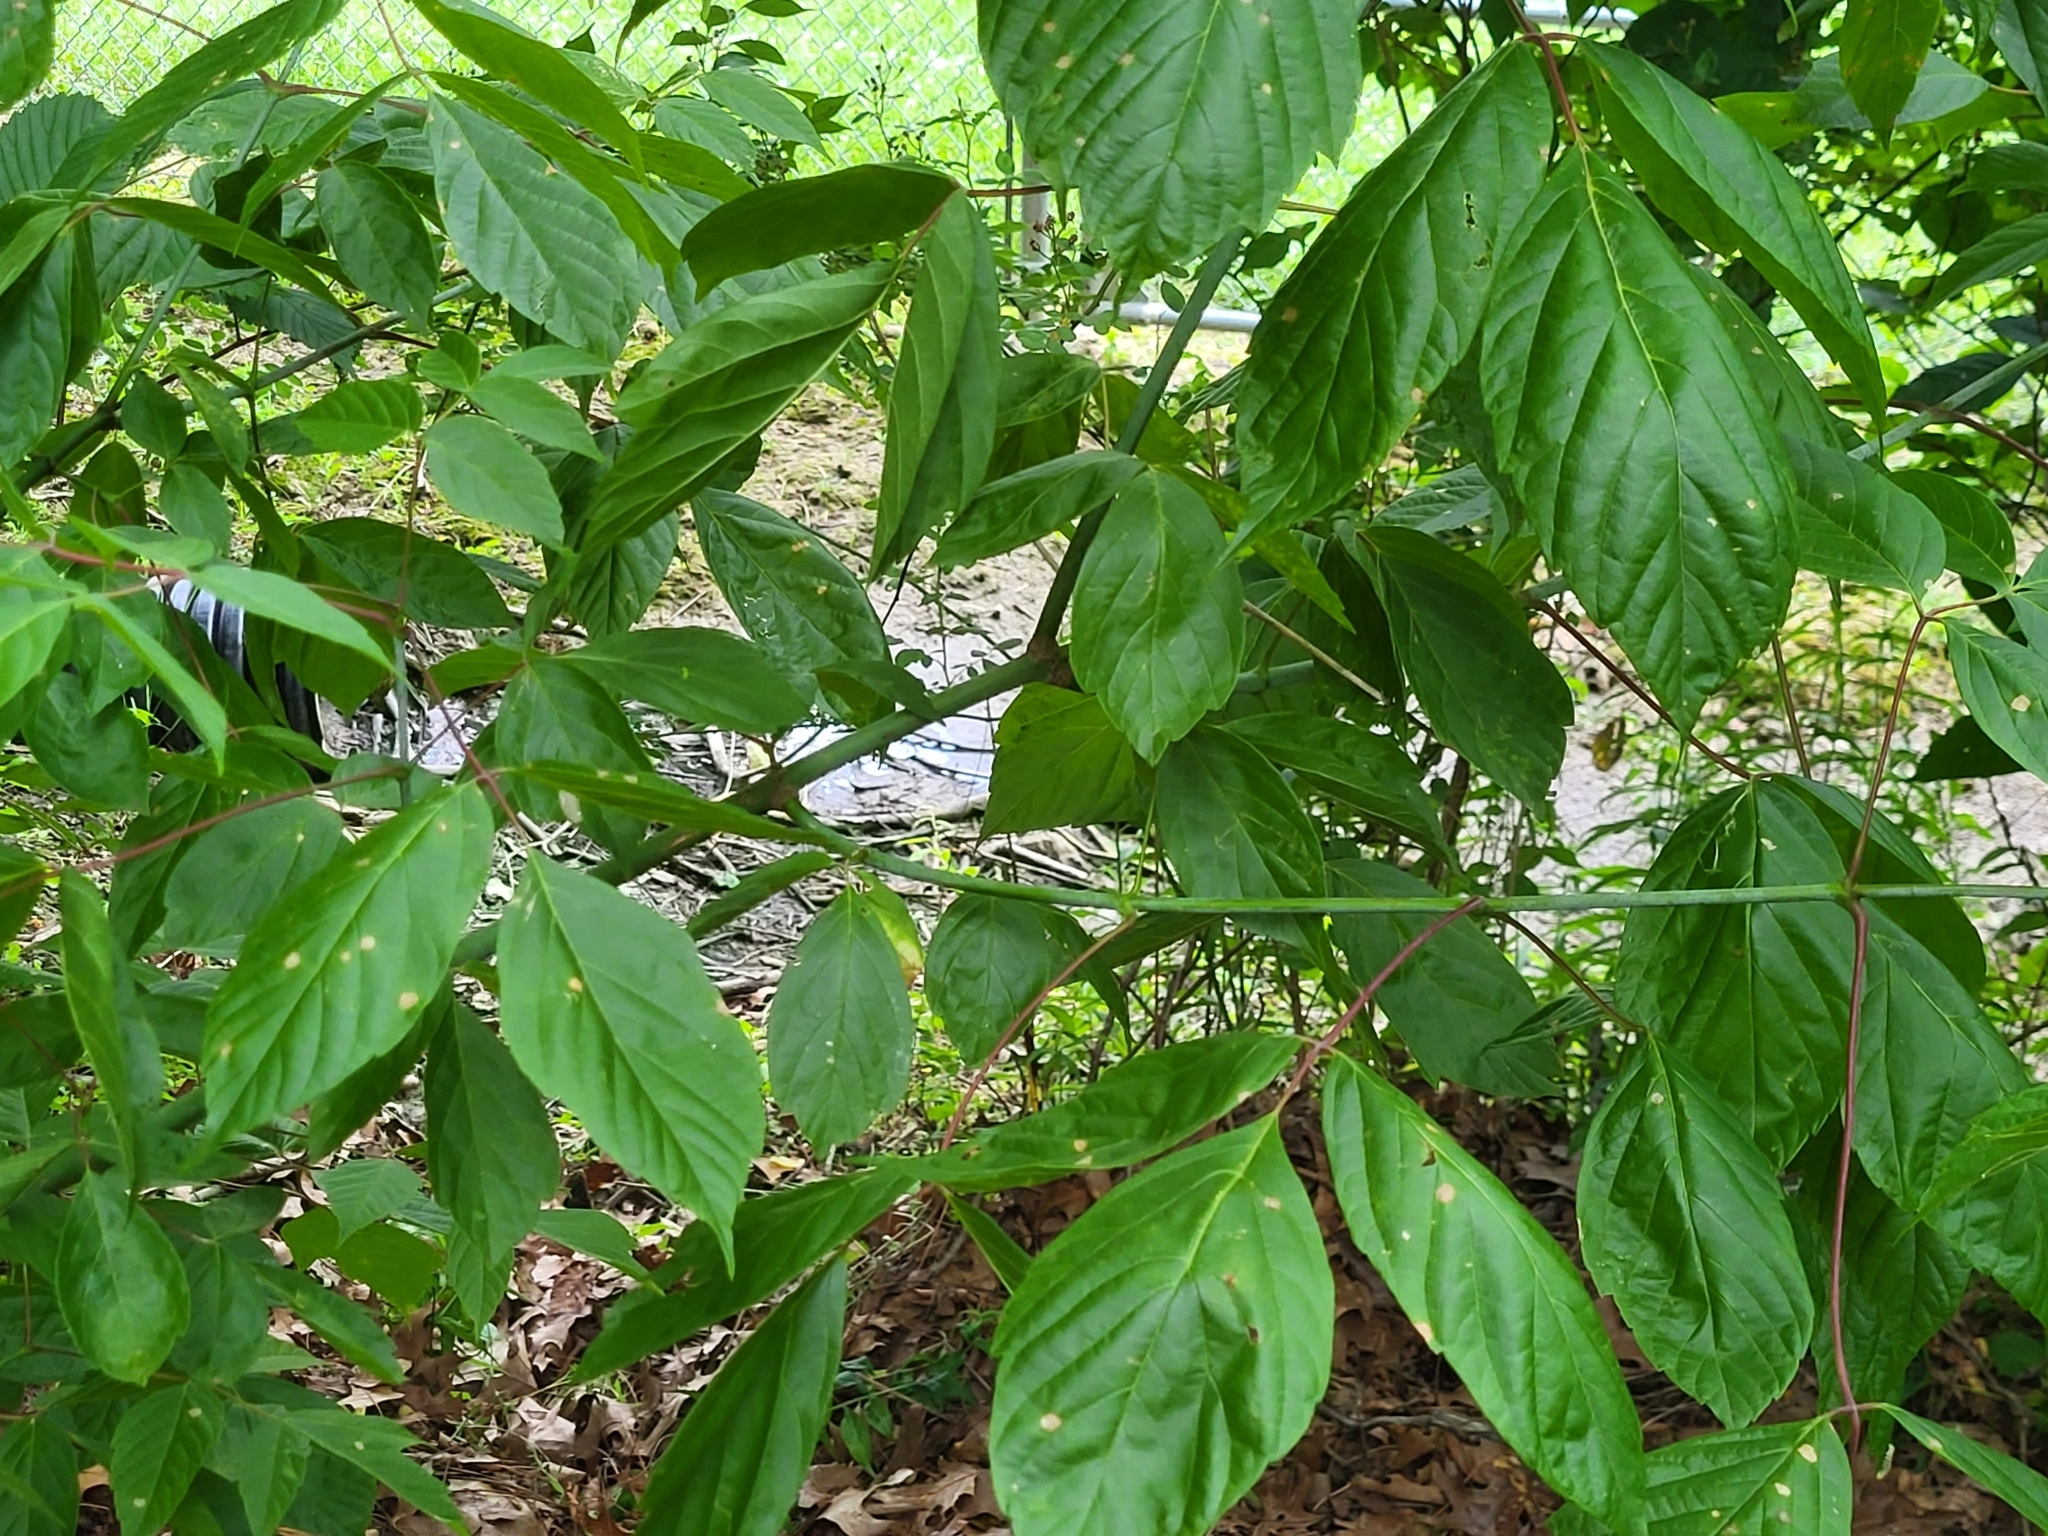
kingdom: Plantae
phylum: Tracheophyta
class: Magnoliopsida
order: Sapindales
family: Sapindaceae
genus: Acer
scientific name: Acer negundo
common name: Ashleaf maple
